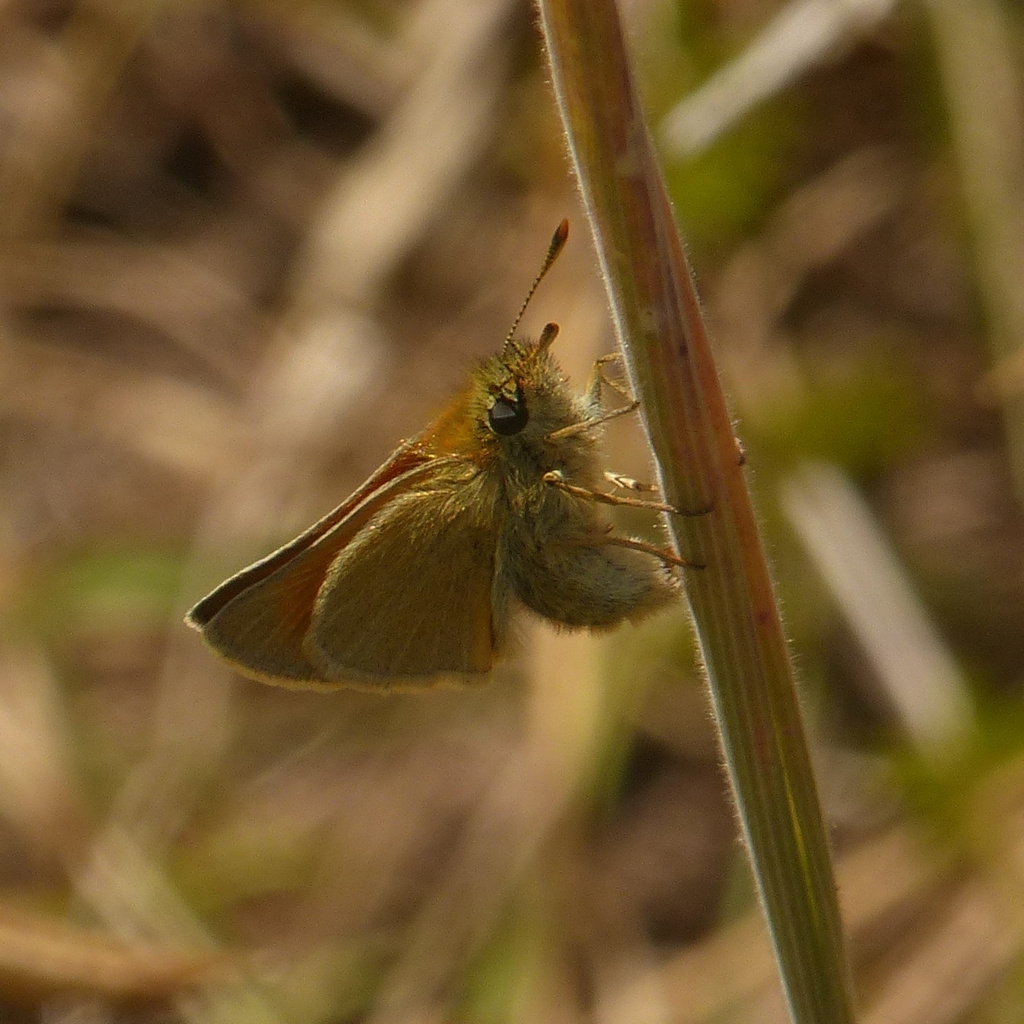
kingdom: Animalia
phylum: Arthropoda
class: Insecta
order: Lepidoptera
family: Hesperiidae
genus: Thymelicus
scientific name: Thymelicus sylvestris
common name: Small skipper
